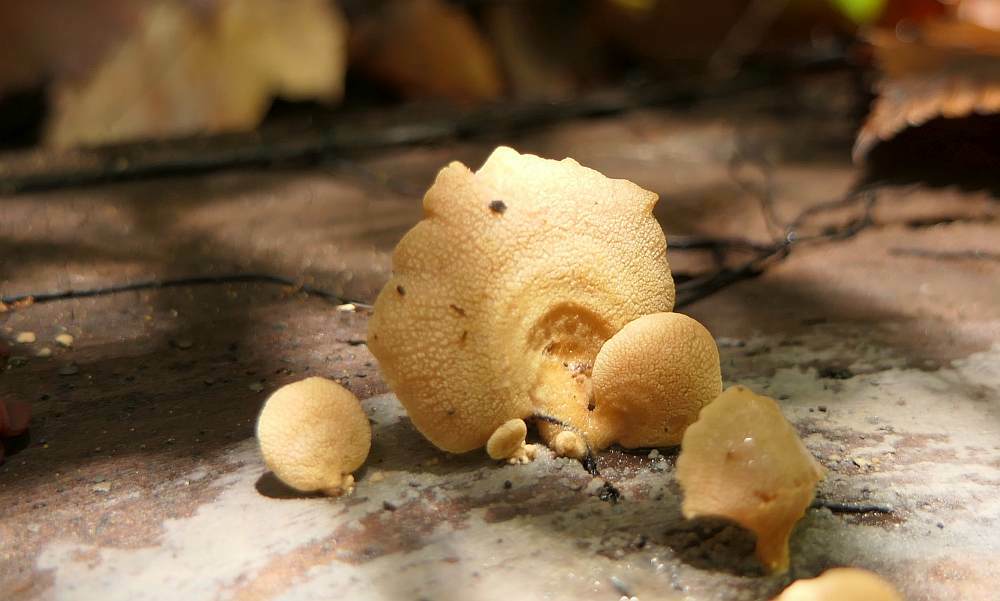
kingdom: Fungi
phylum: Basidiomycota
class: Agaricomycetes
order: Agaricales
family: Mycenaceae
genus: Panellus
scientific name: Panellus stipticus
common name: Bitter oysterling
